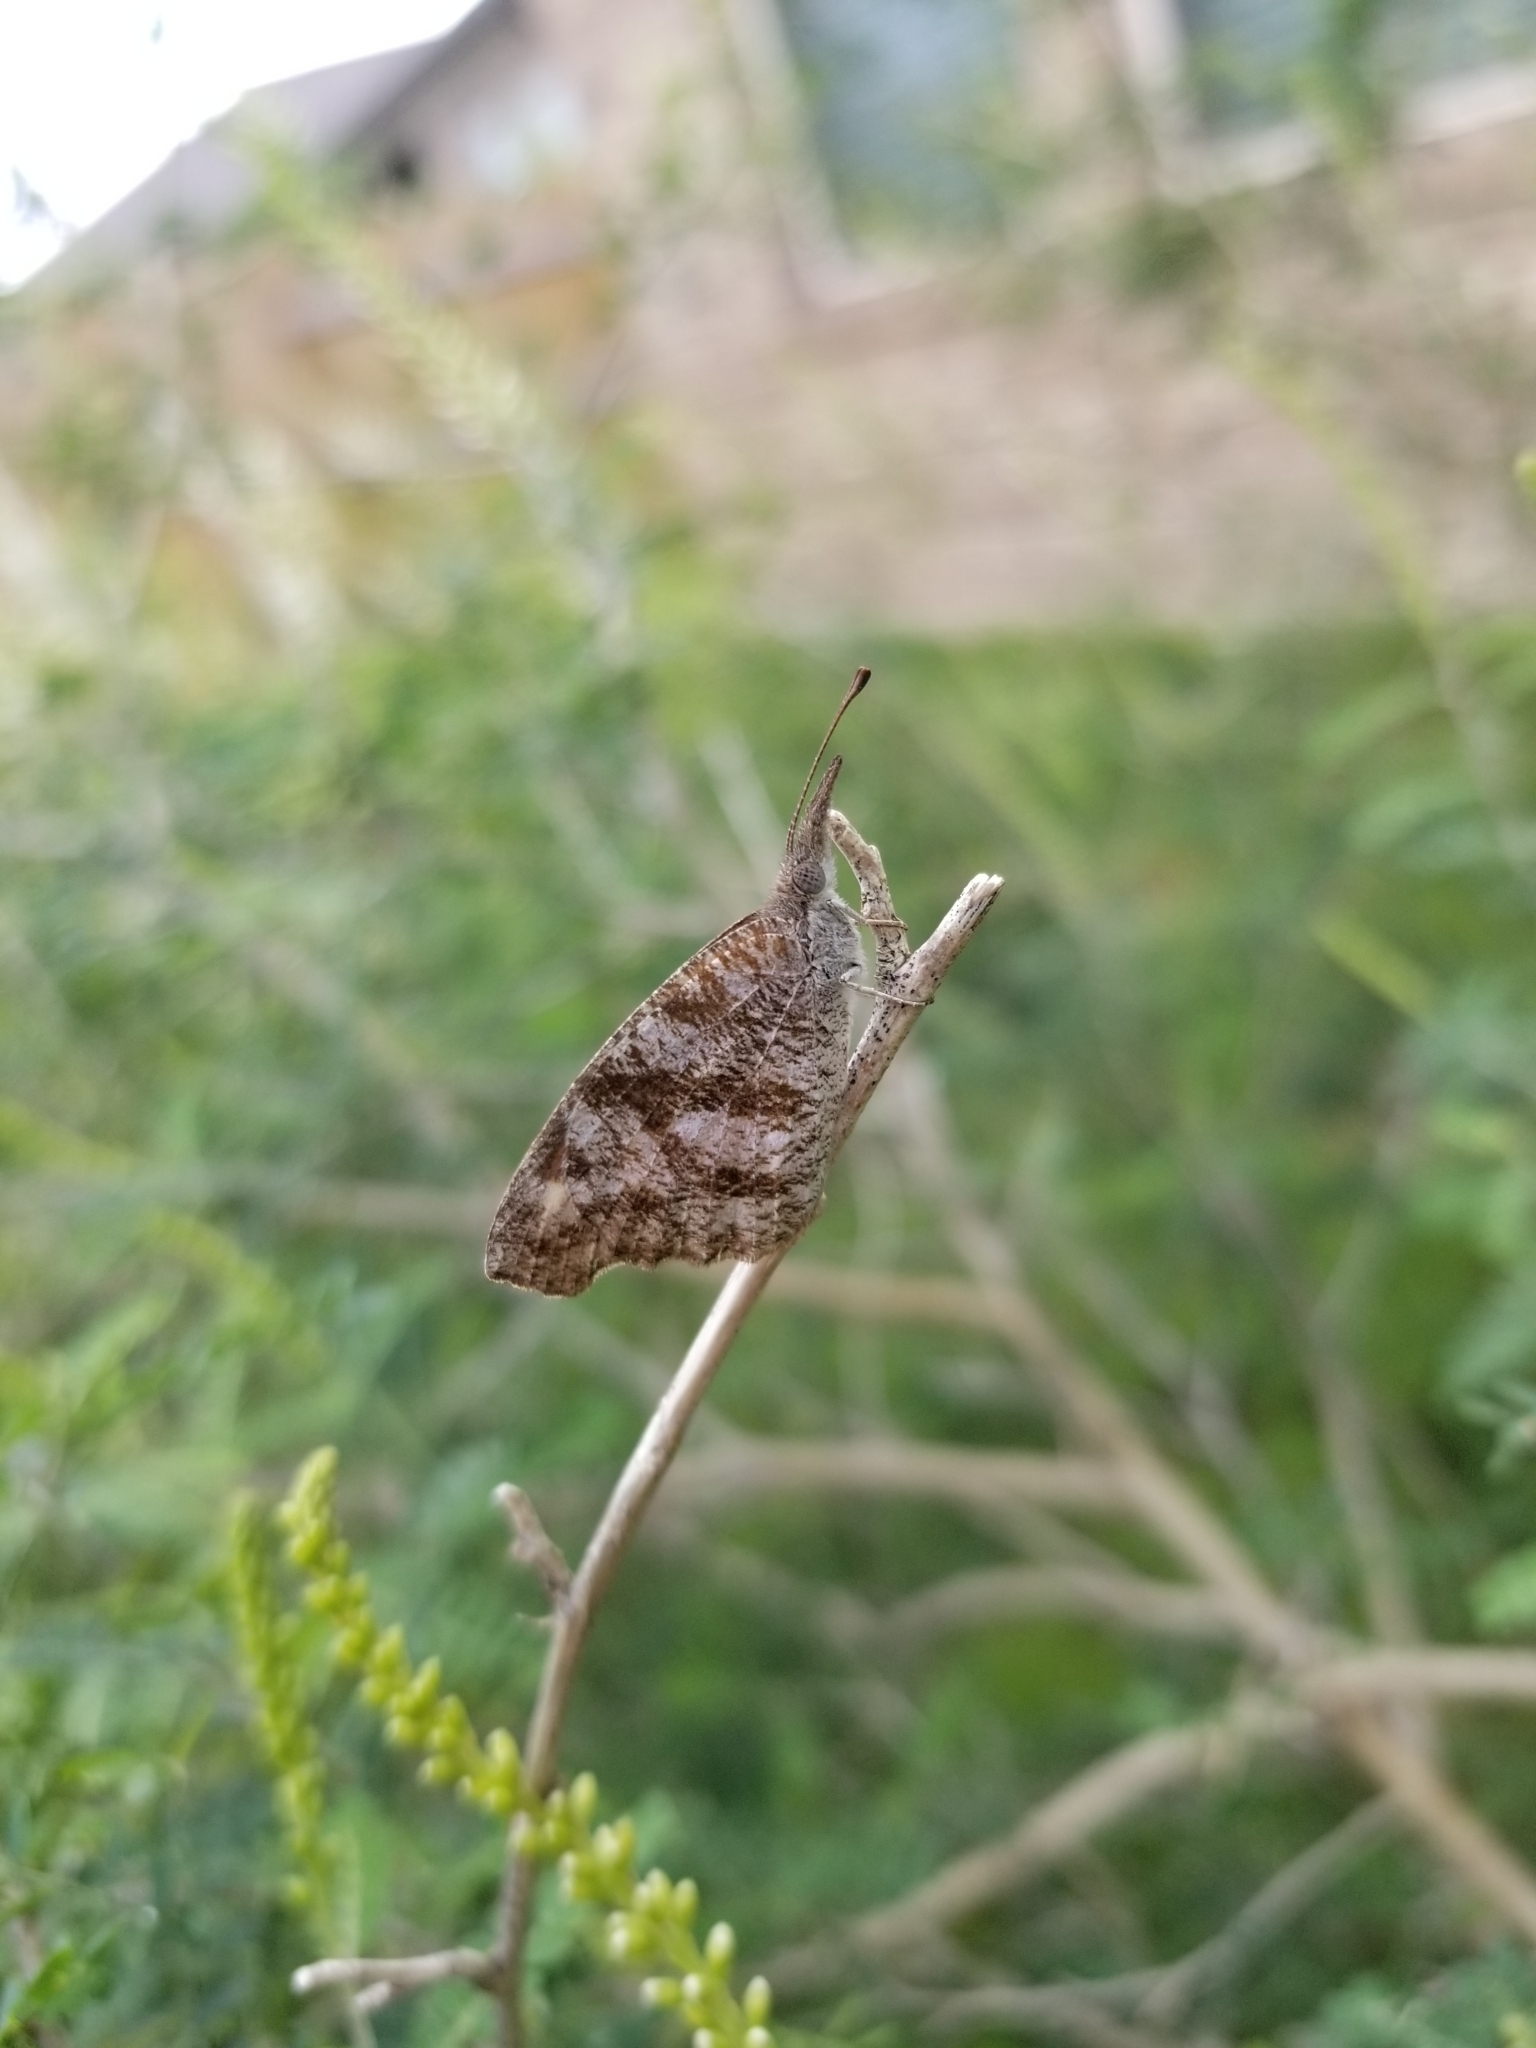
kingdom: Animalia
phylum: Arthropoda
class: Insecta
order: Lepidoptera
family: Nymphalidae
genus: Libytheana
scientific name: Libytheana carinenta
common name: American snout
